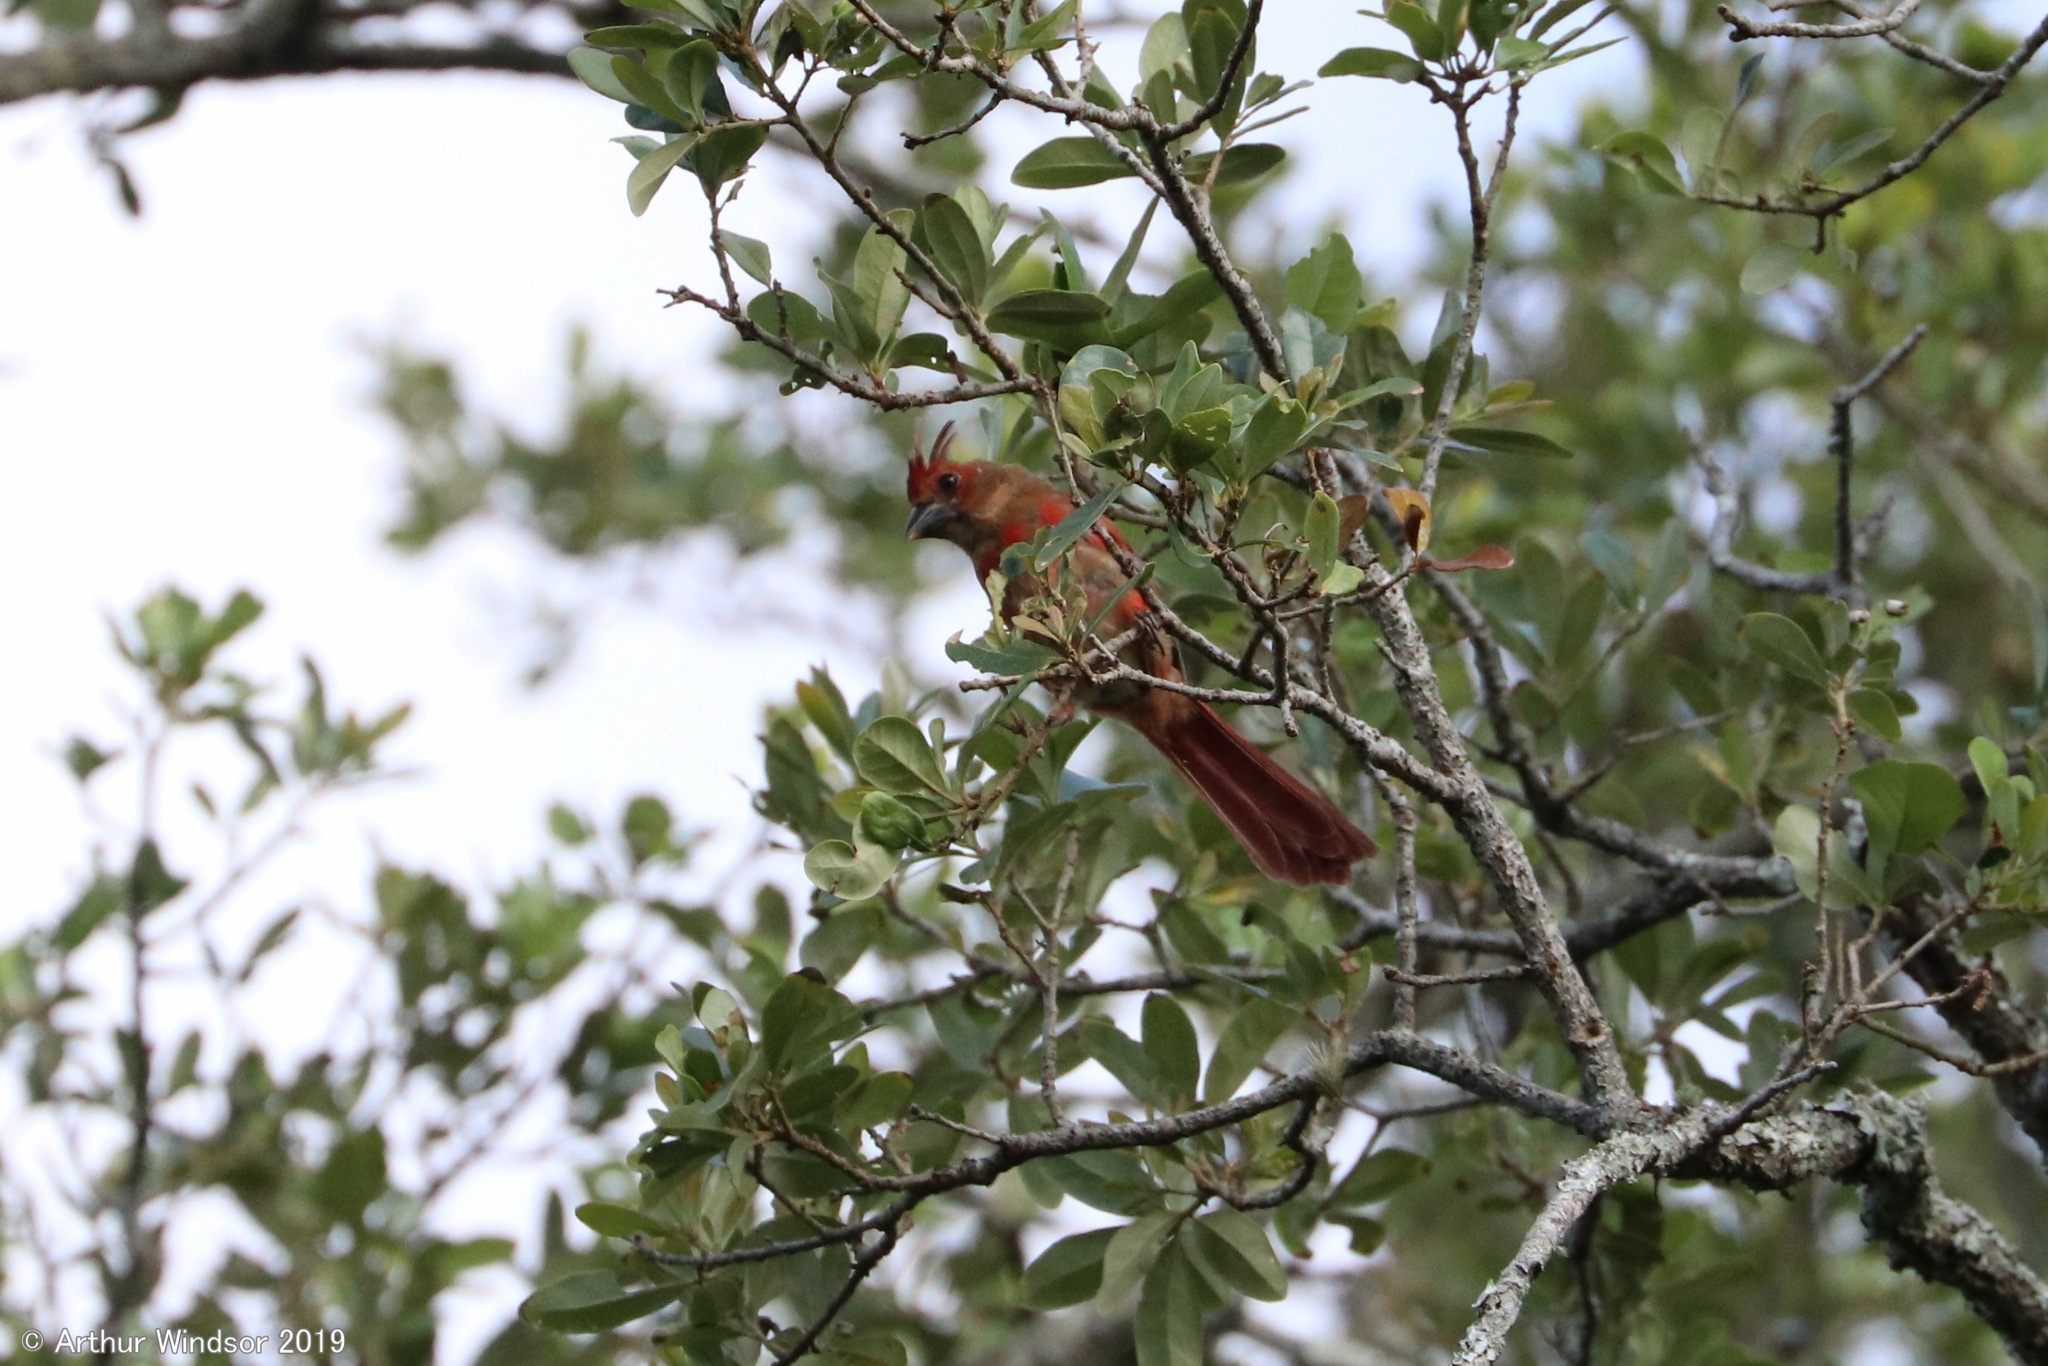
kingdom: Animalia
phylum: Chordata
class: Aves
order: Passeriformes
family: Cardinalidae
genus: Cardinalis
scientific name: Cardinalis cardinalis
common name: Northern cardinal
